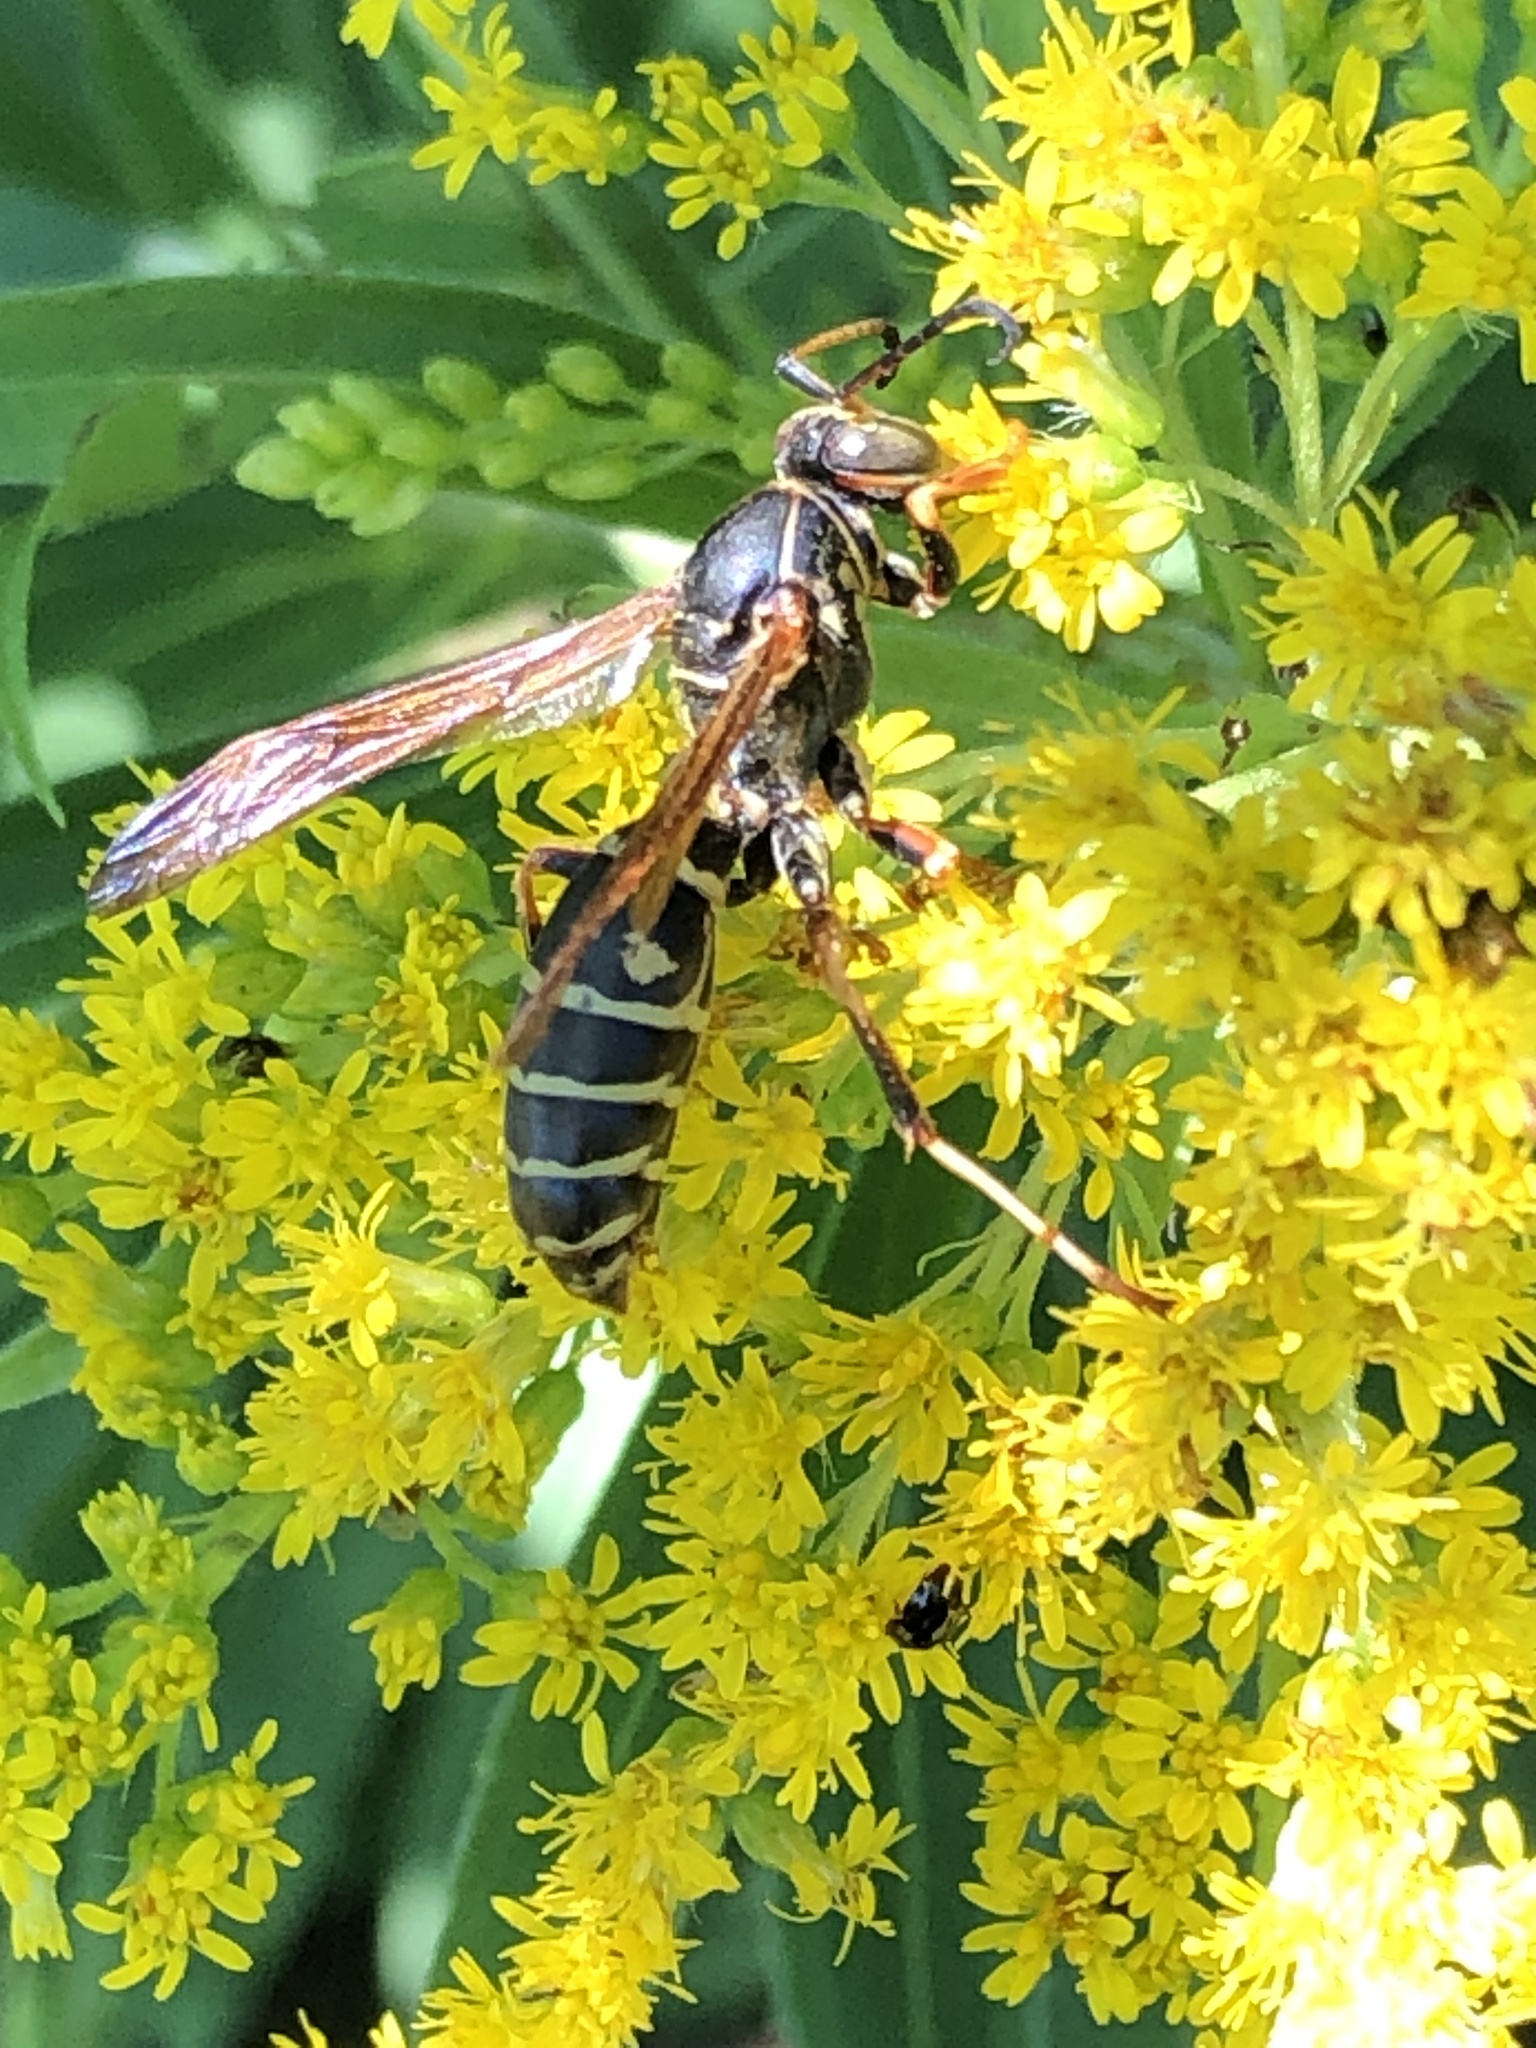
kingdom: Animalia
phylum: Arthropoda
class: Insecta
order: Hymenoptera
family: Eumenidae
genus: Polistes
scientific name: Polistes fuscatus
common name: Dark paper wasp
